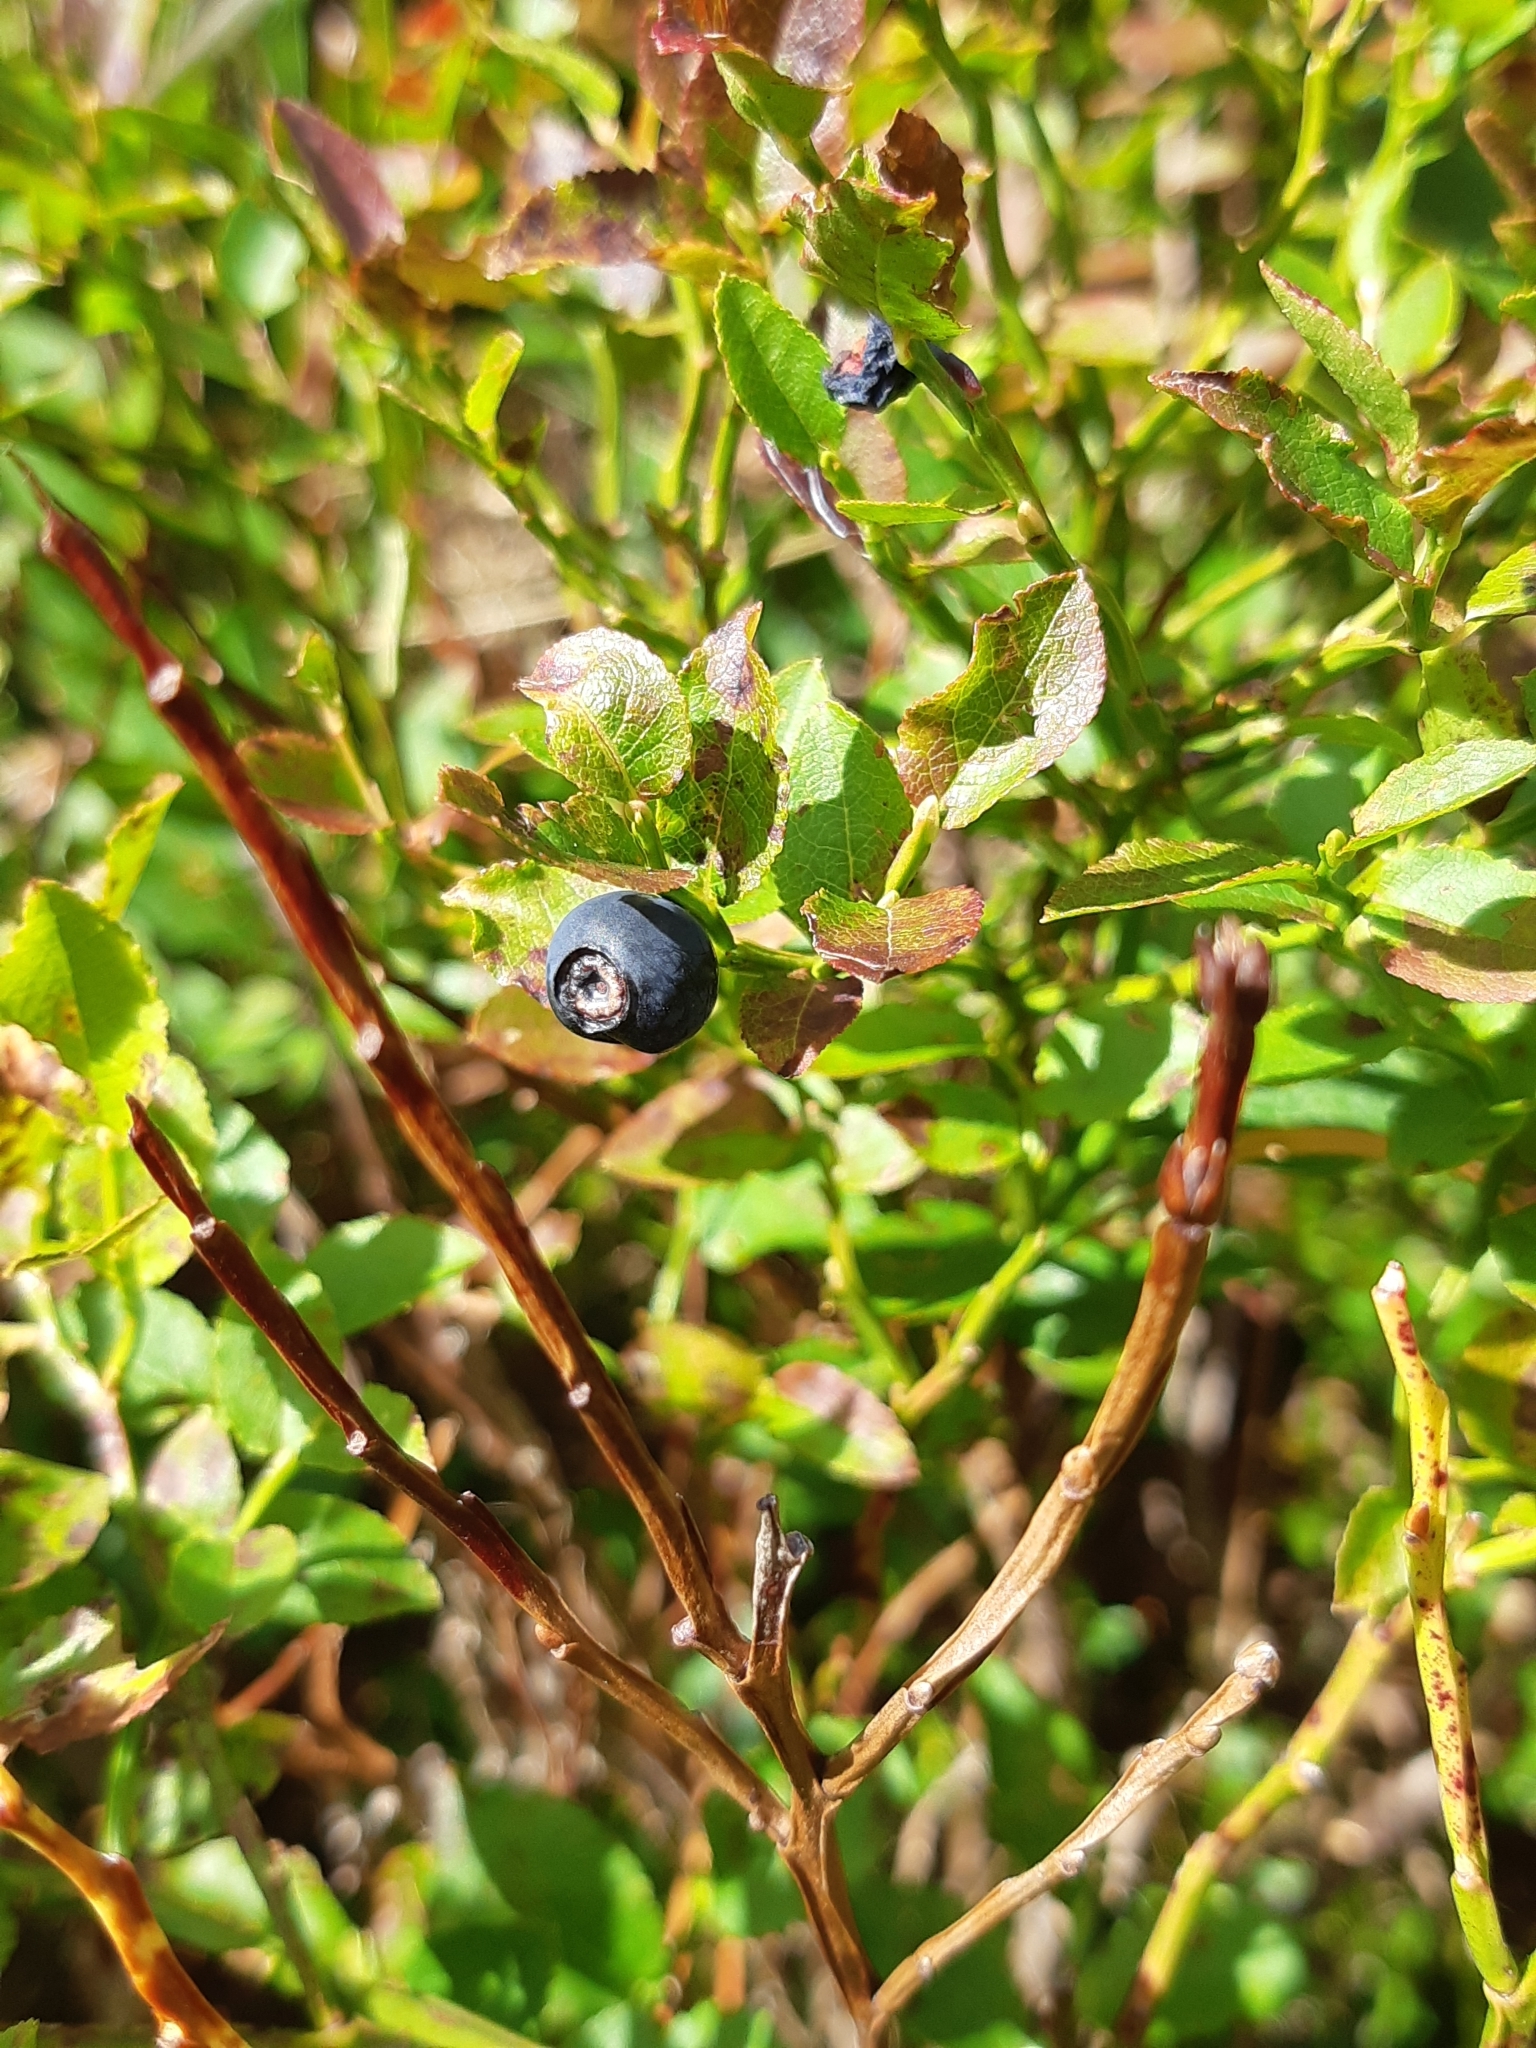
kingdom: Plantae
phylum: Tracheophyta
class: Magnoliopsida
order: Ericales
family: Ericaceae
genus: Vaccinium
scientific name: Vaccinium myrtillus
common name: Bilberry
